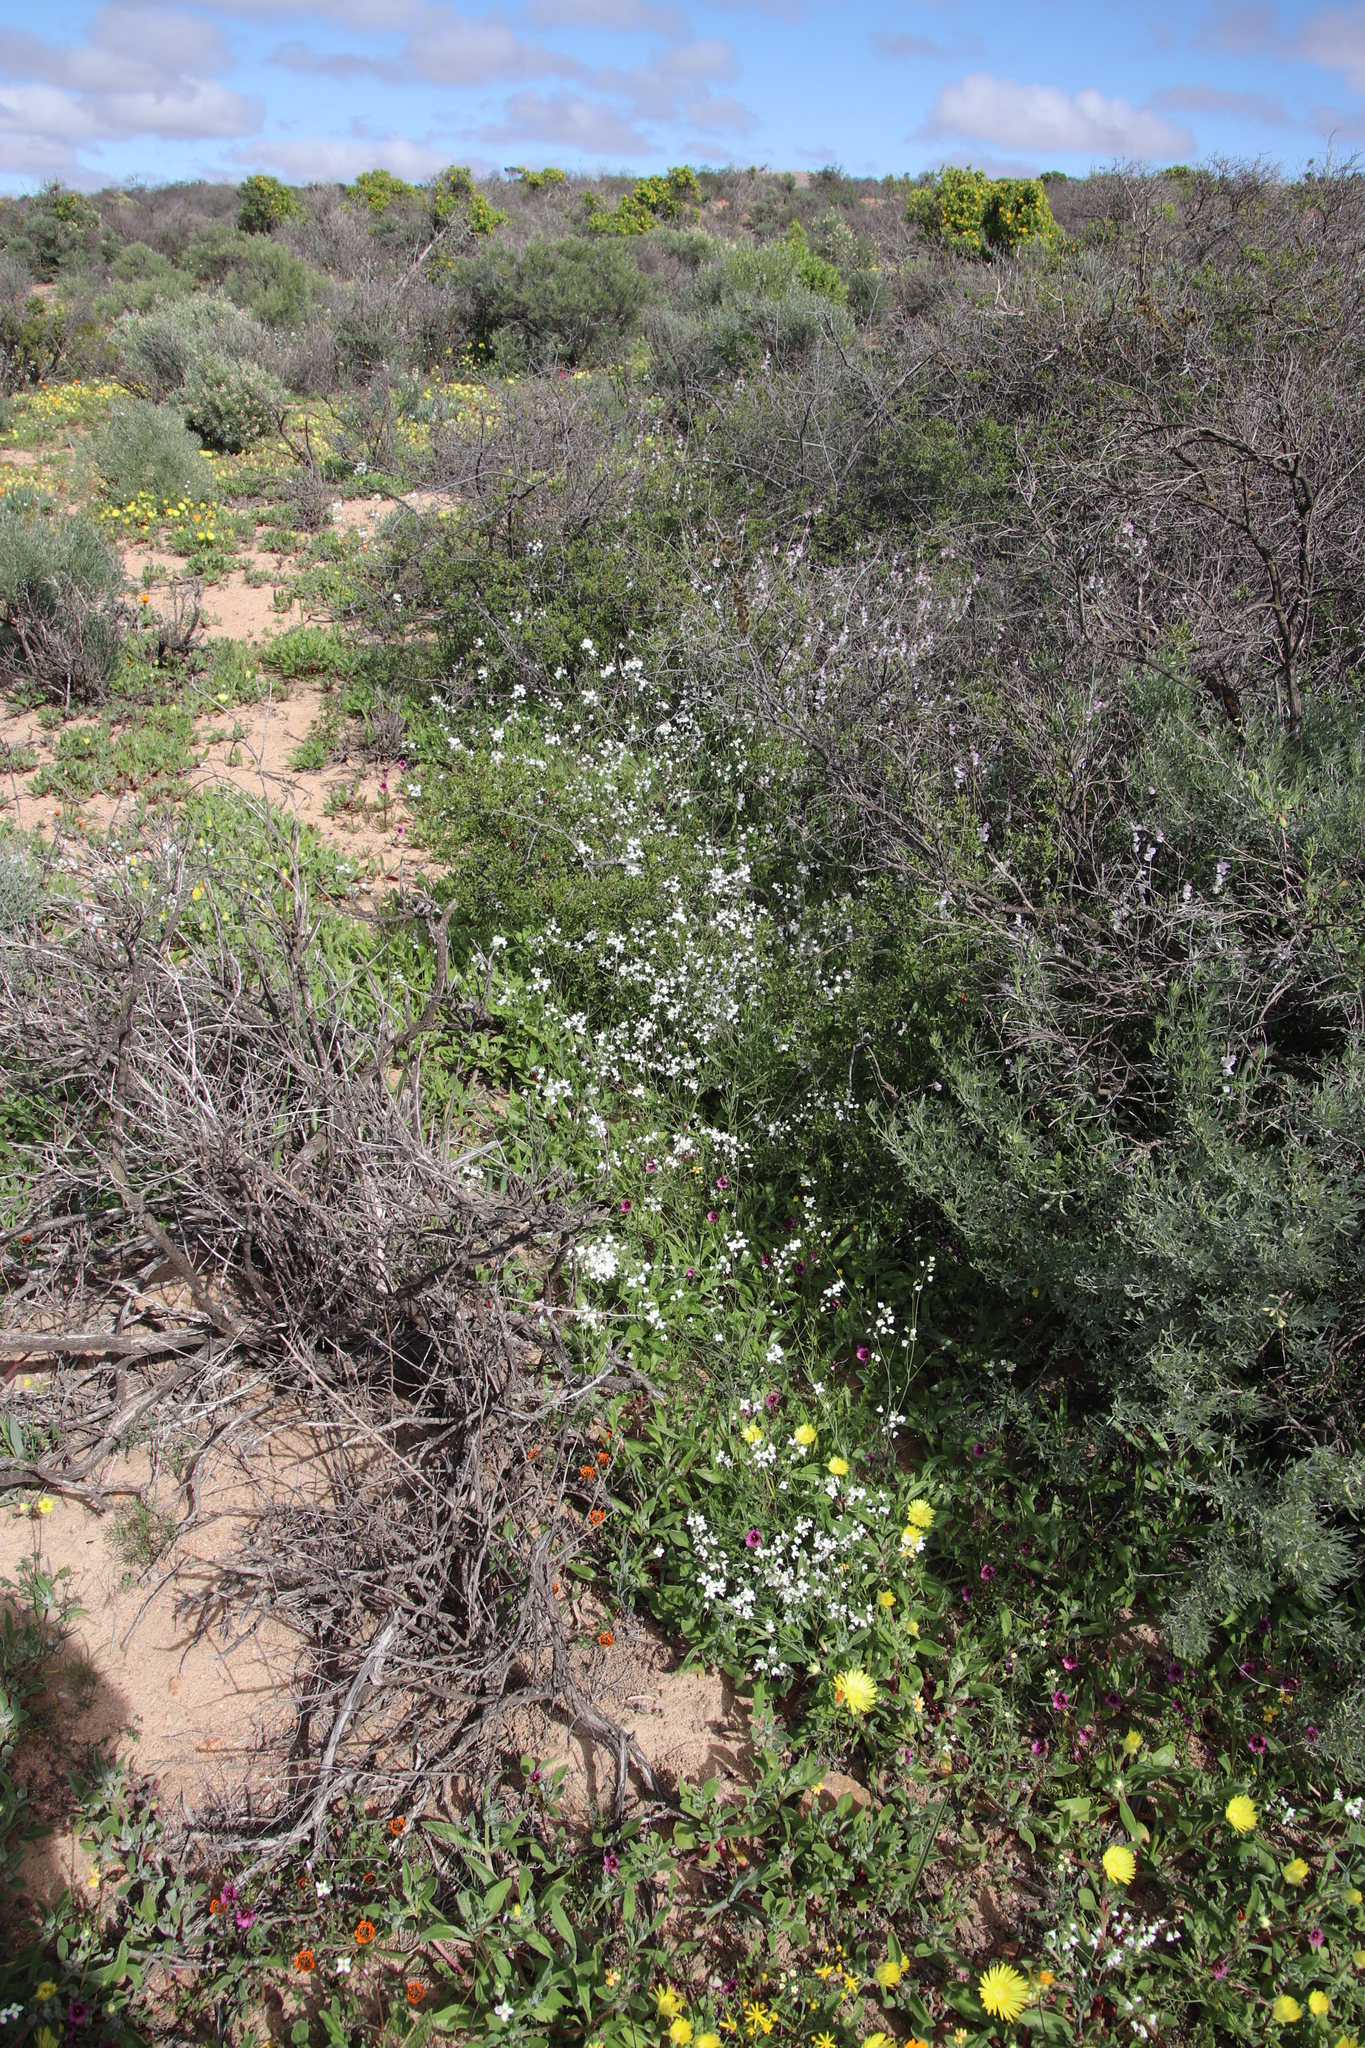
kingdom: Plantae
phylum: Tracheophyta
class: Magnoliopsida
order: Brassicales
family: Brassicaceae
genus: Heliophila
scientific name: Heliophila amplexicaulis
